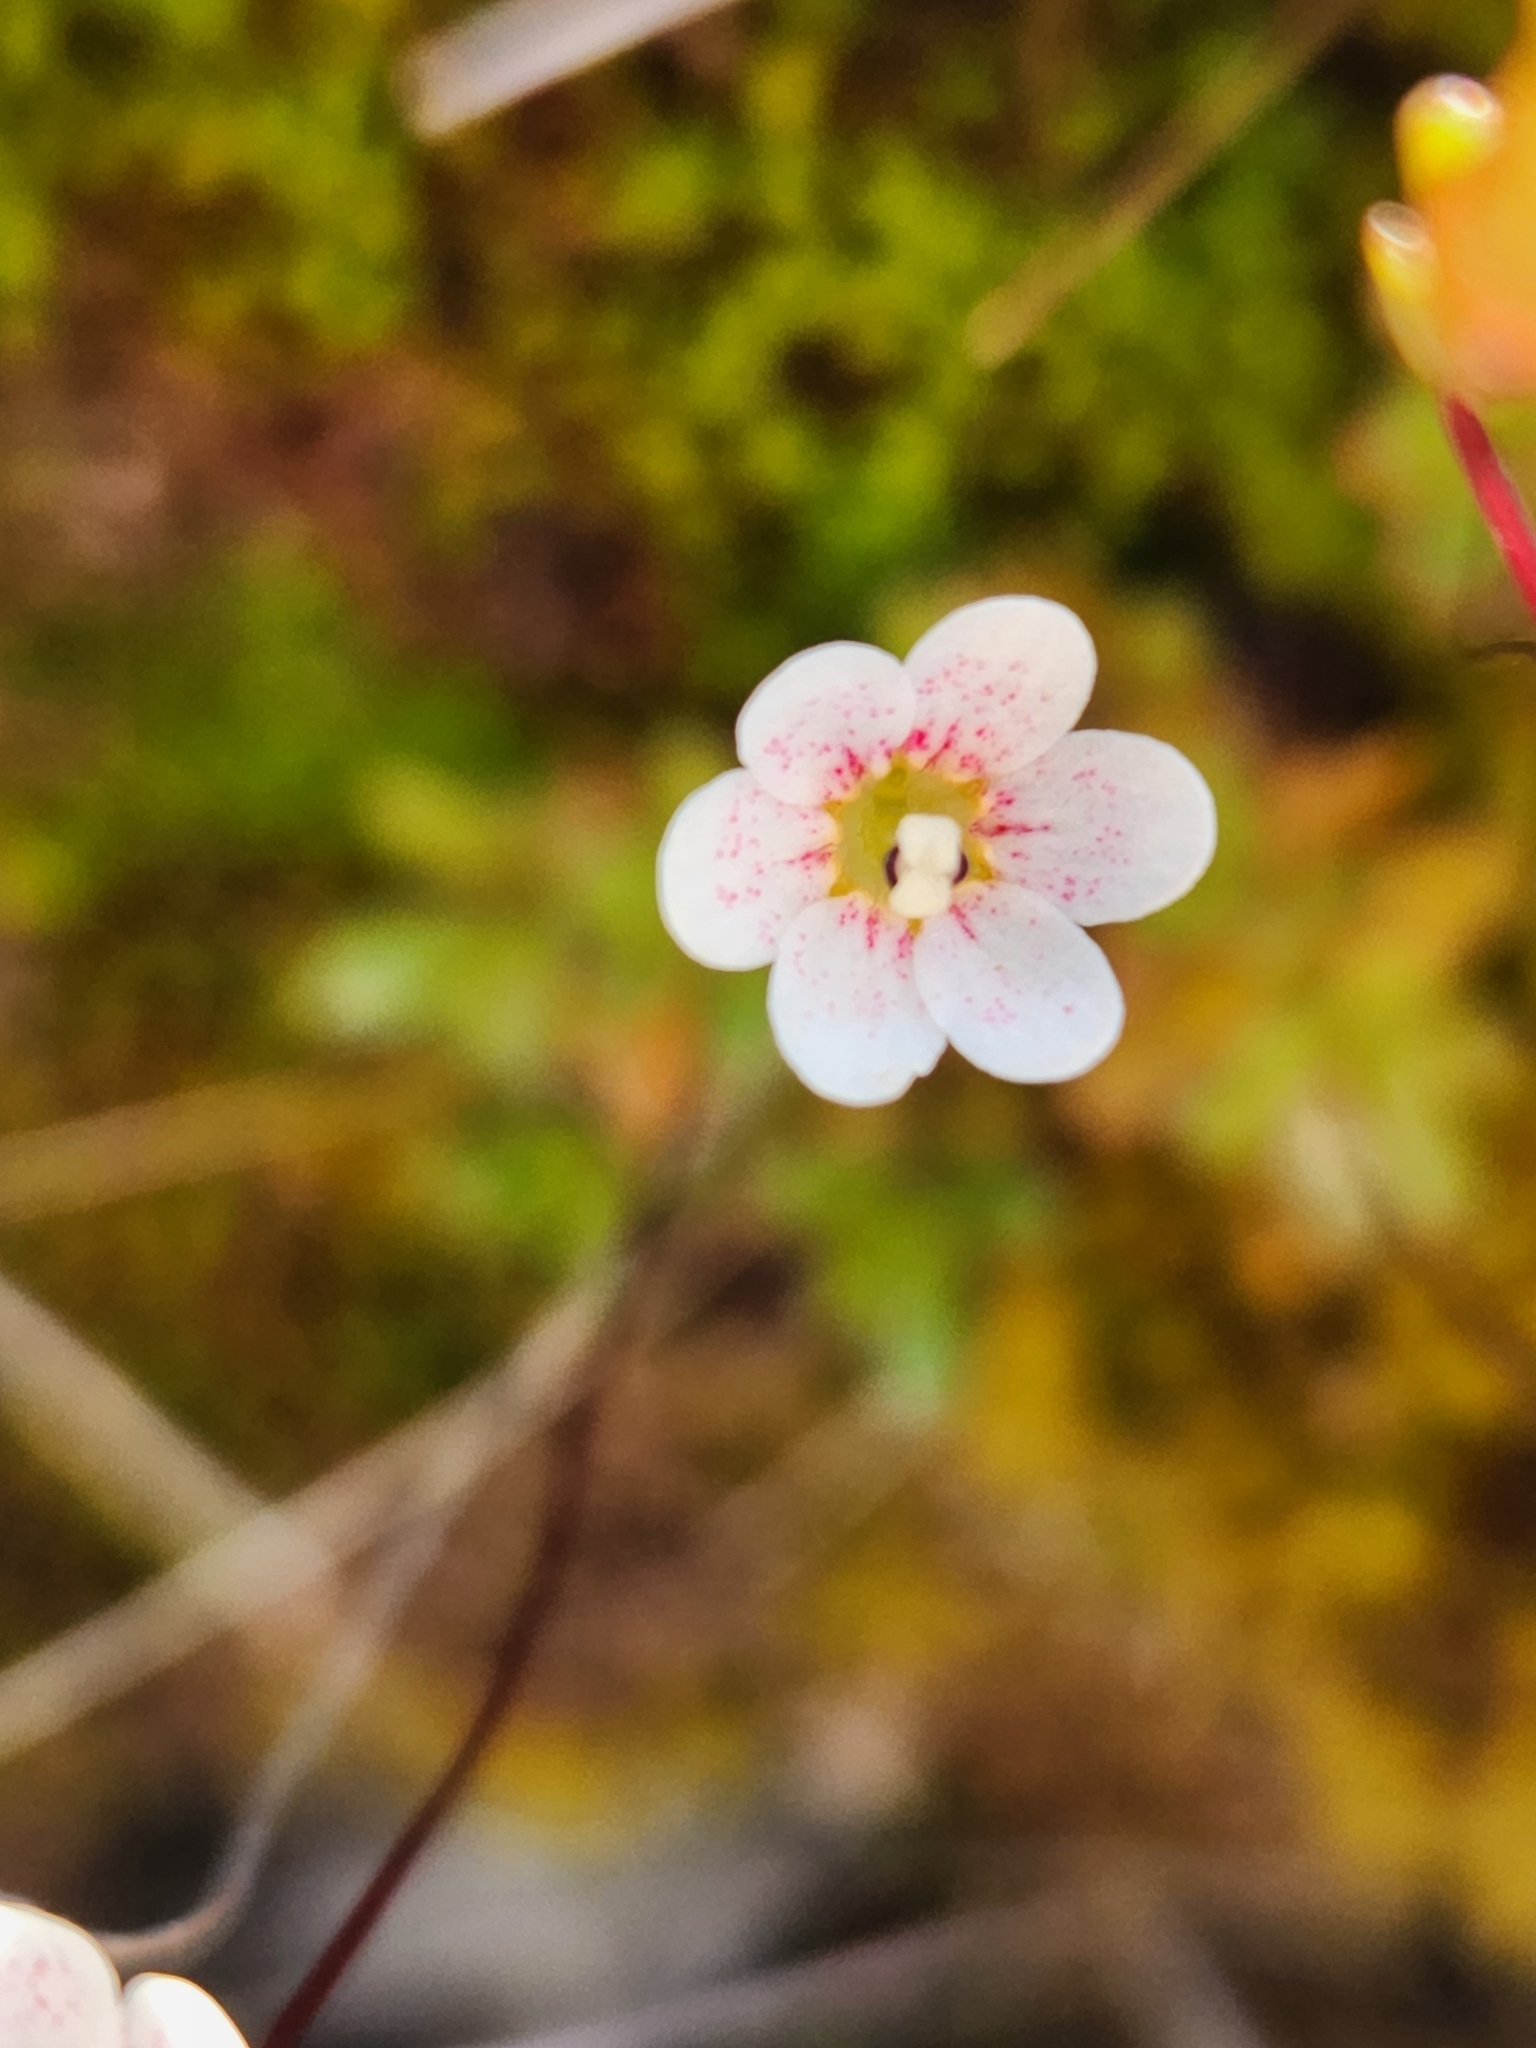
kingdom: Plantae
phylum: Tracheophyta
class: Magnoliopsida
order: Asterales
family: Stylidiaceae
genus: Forstera
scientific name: Forstera tenella
